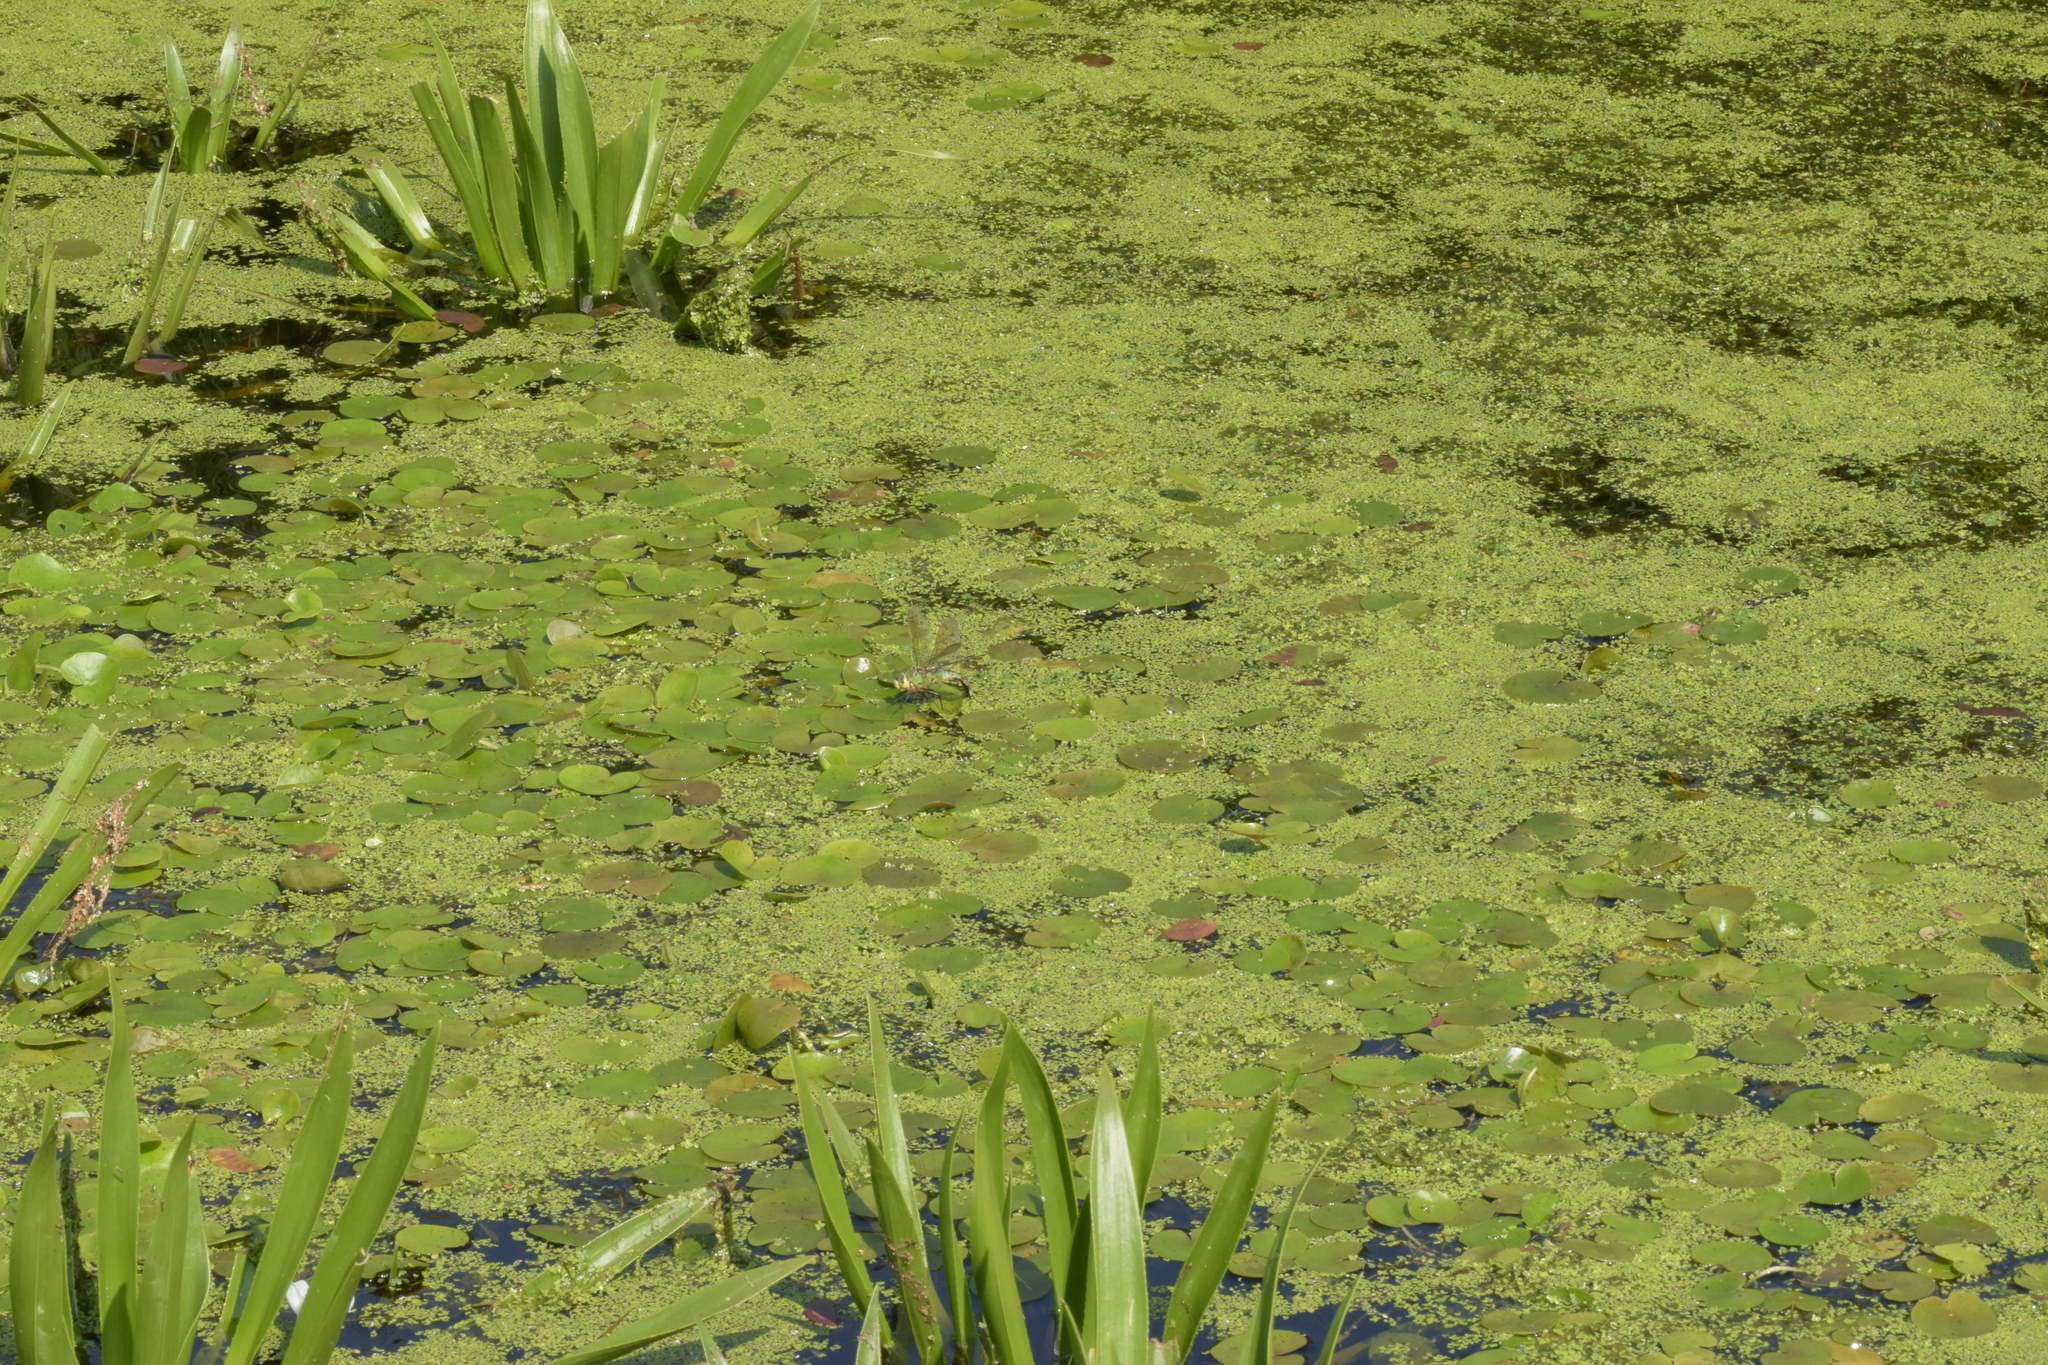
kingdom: Animalia
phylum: Arthropoda
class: Insecta
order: Odonata
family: Aeshnidae
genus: Anax
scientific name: Anax imperator
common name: Emperor dragonfly
